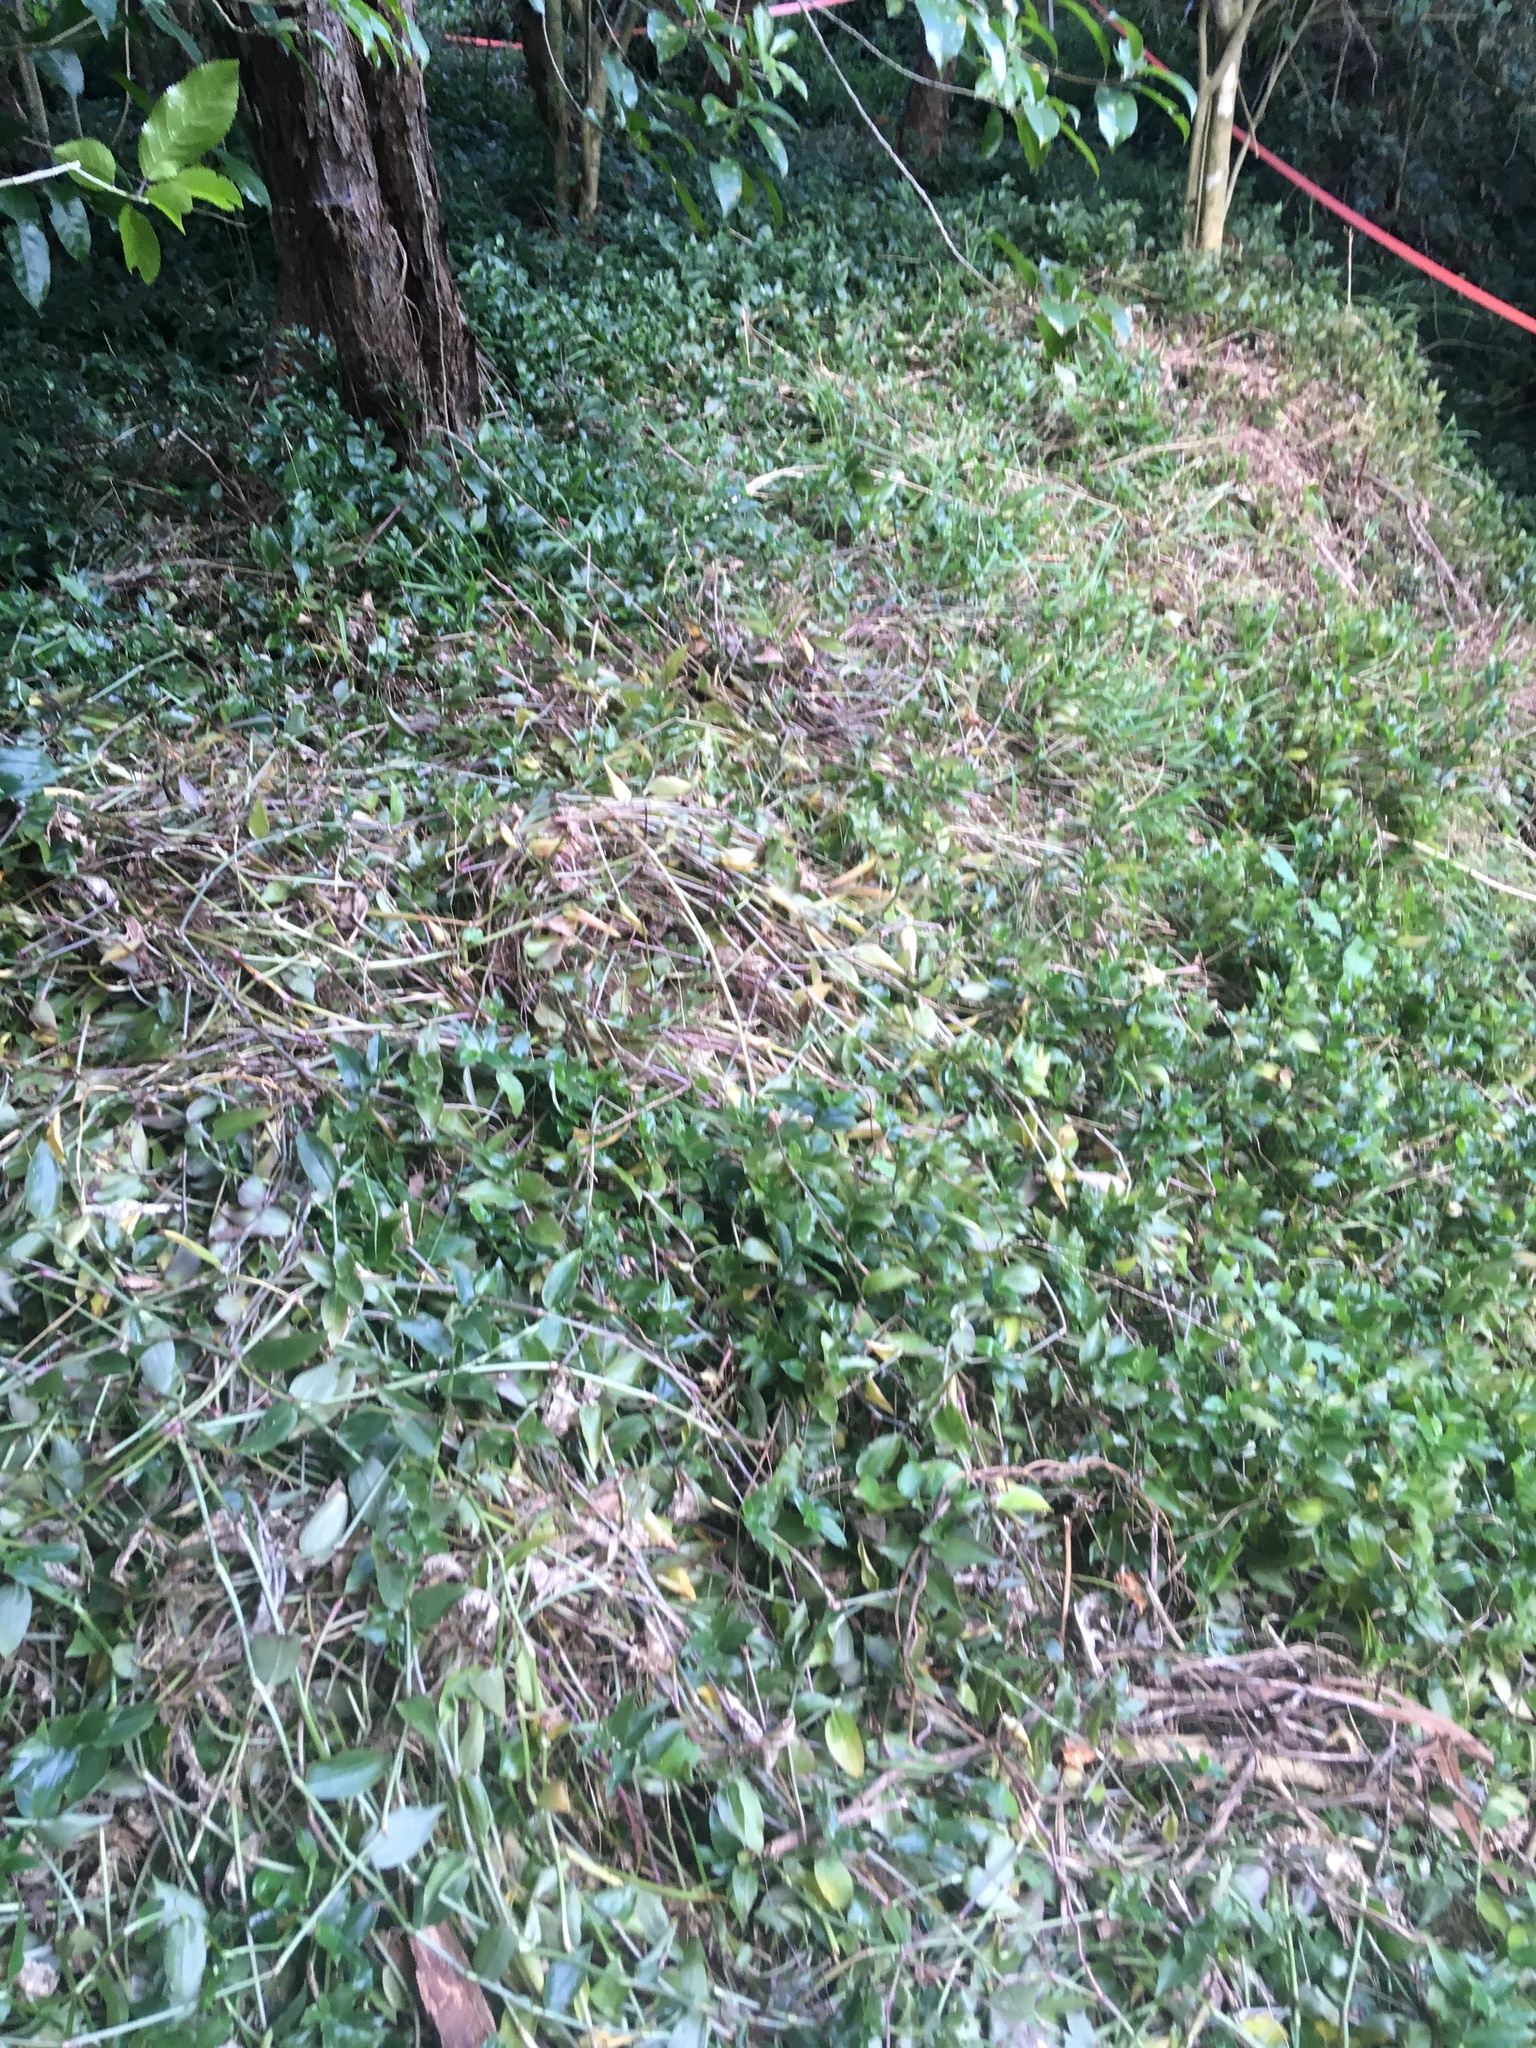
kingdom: Plantae
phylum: Tracheophyta
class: Liliopsida
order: Commelinales
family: Commelinaceae
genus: Tradescantia
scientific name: Tradescantia fluminensis
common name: Wandering-jew
